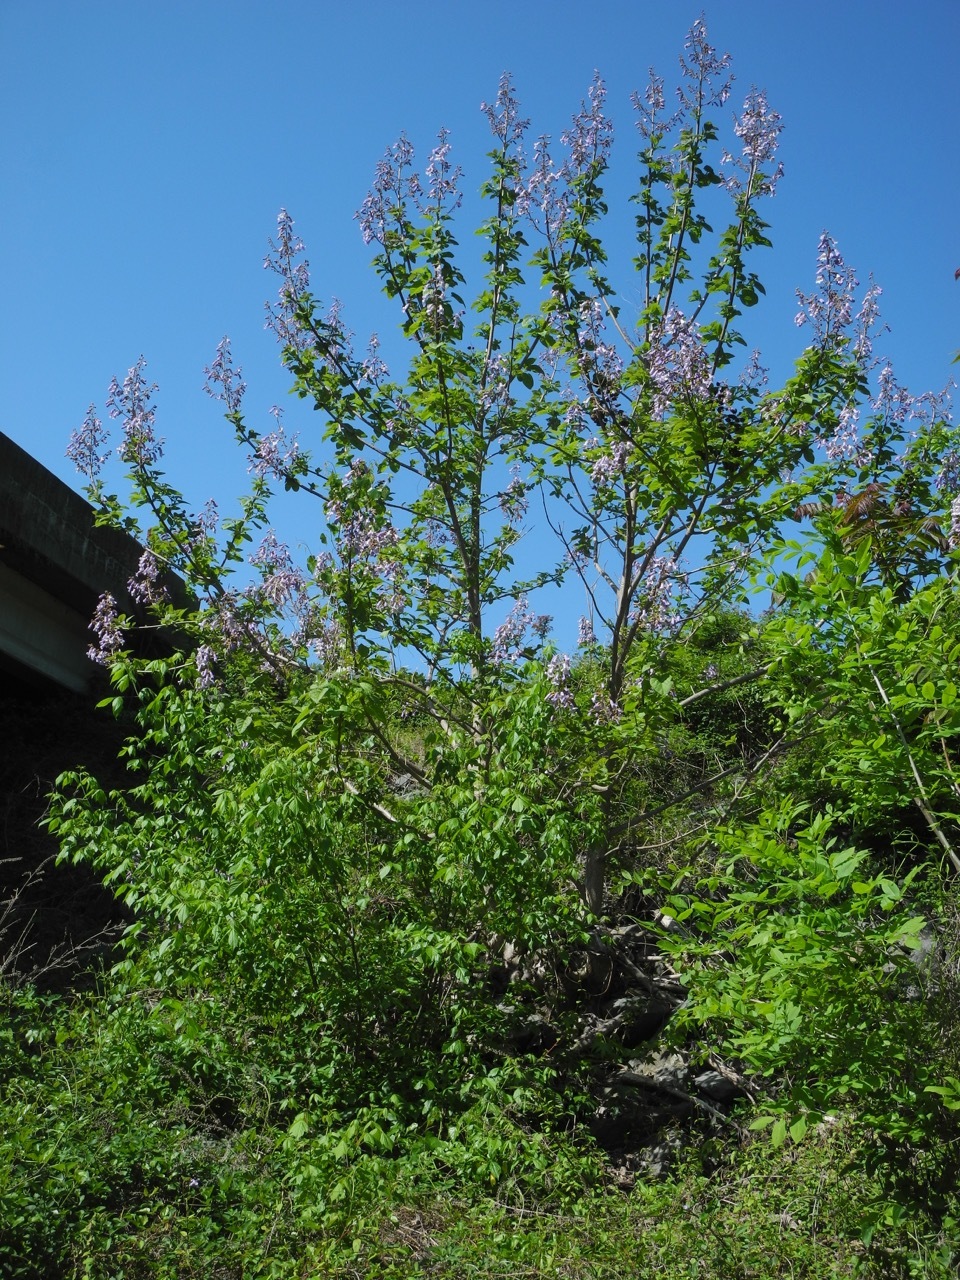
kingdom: Plantae
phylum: Tracheophyta
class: Magnoliopsida
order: Lamiales
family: Paulowniaceae
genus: Paulownia
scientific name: Paulownia tomentosa
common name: Foxglove-tree
